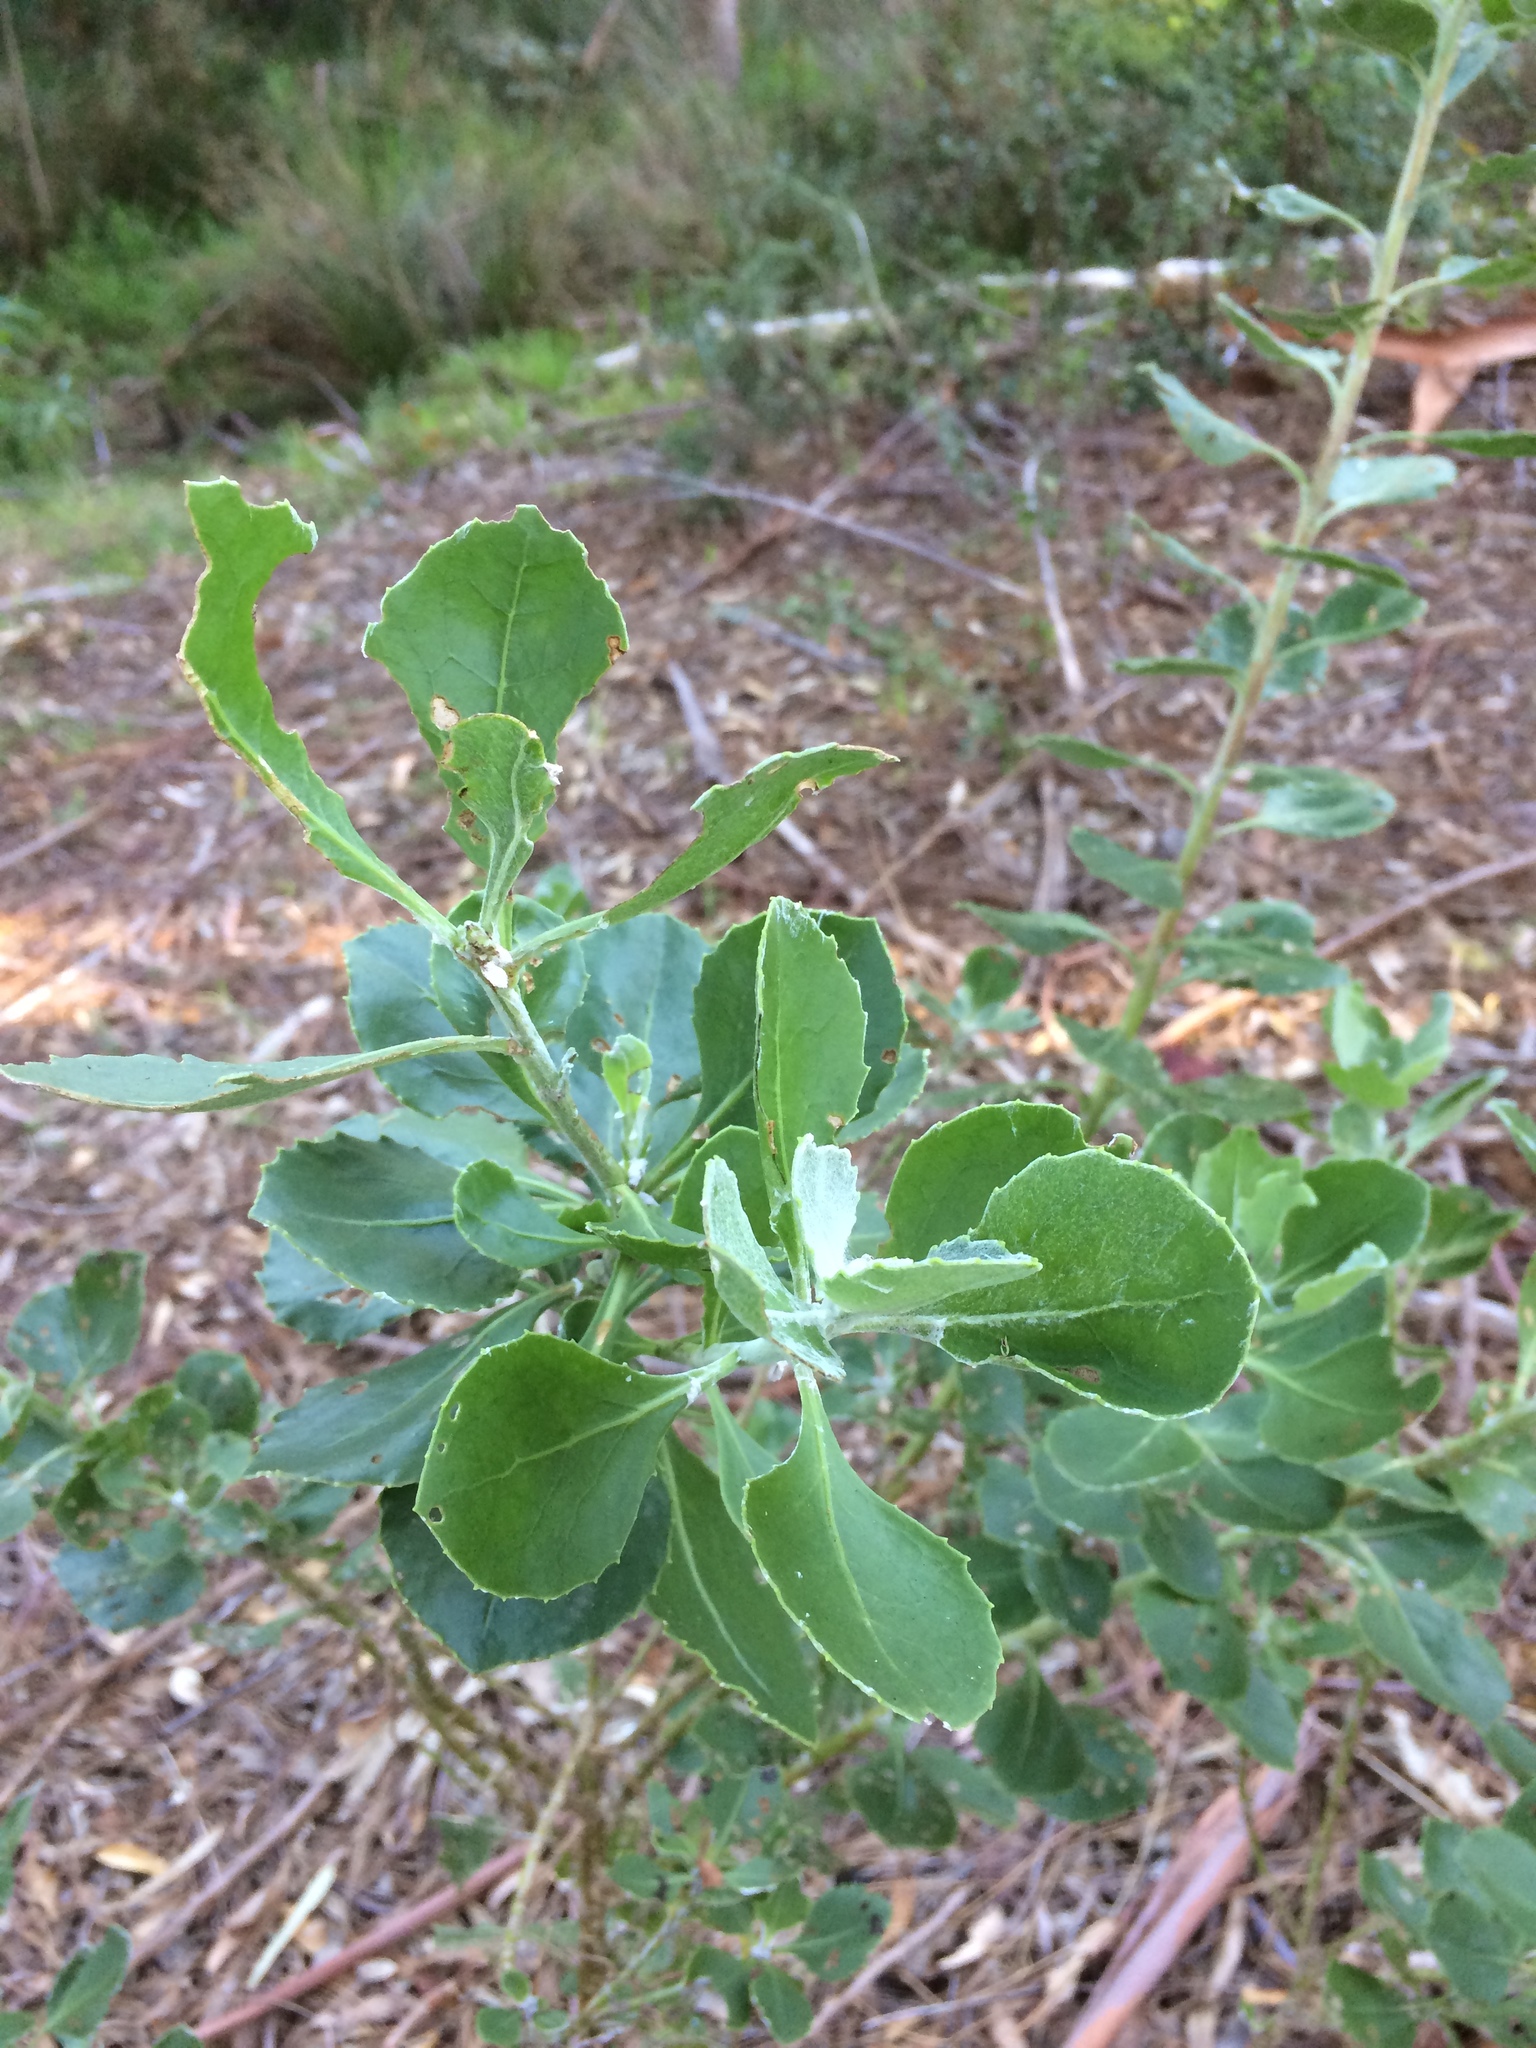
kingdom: Plantae
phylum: Tracheophyta
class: Magnoliopsida
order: Asterales
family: Asteraceae
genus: Osteospermum
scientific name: Osteospermum moniliferum
